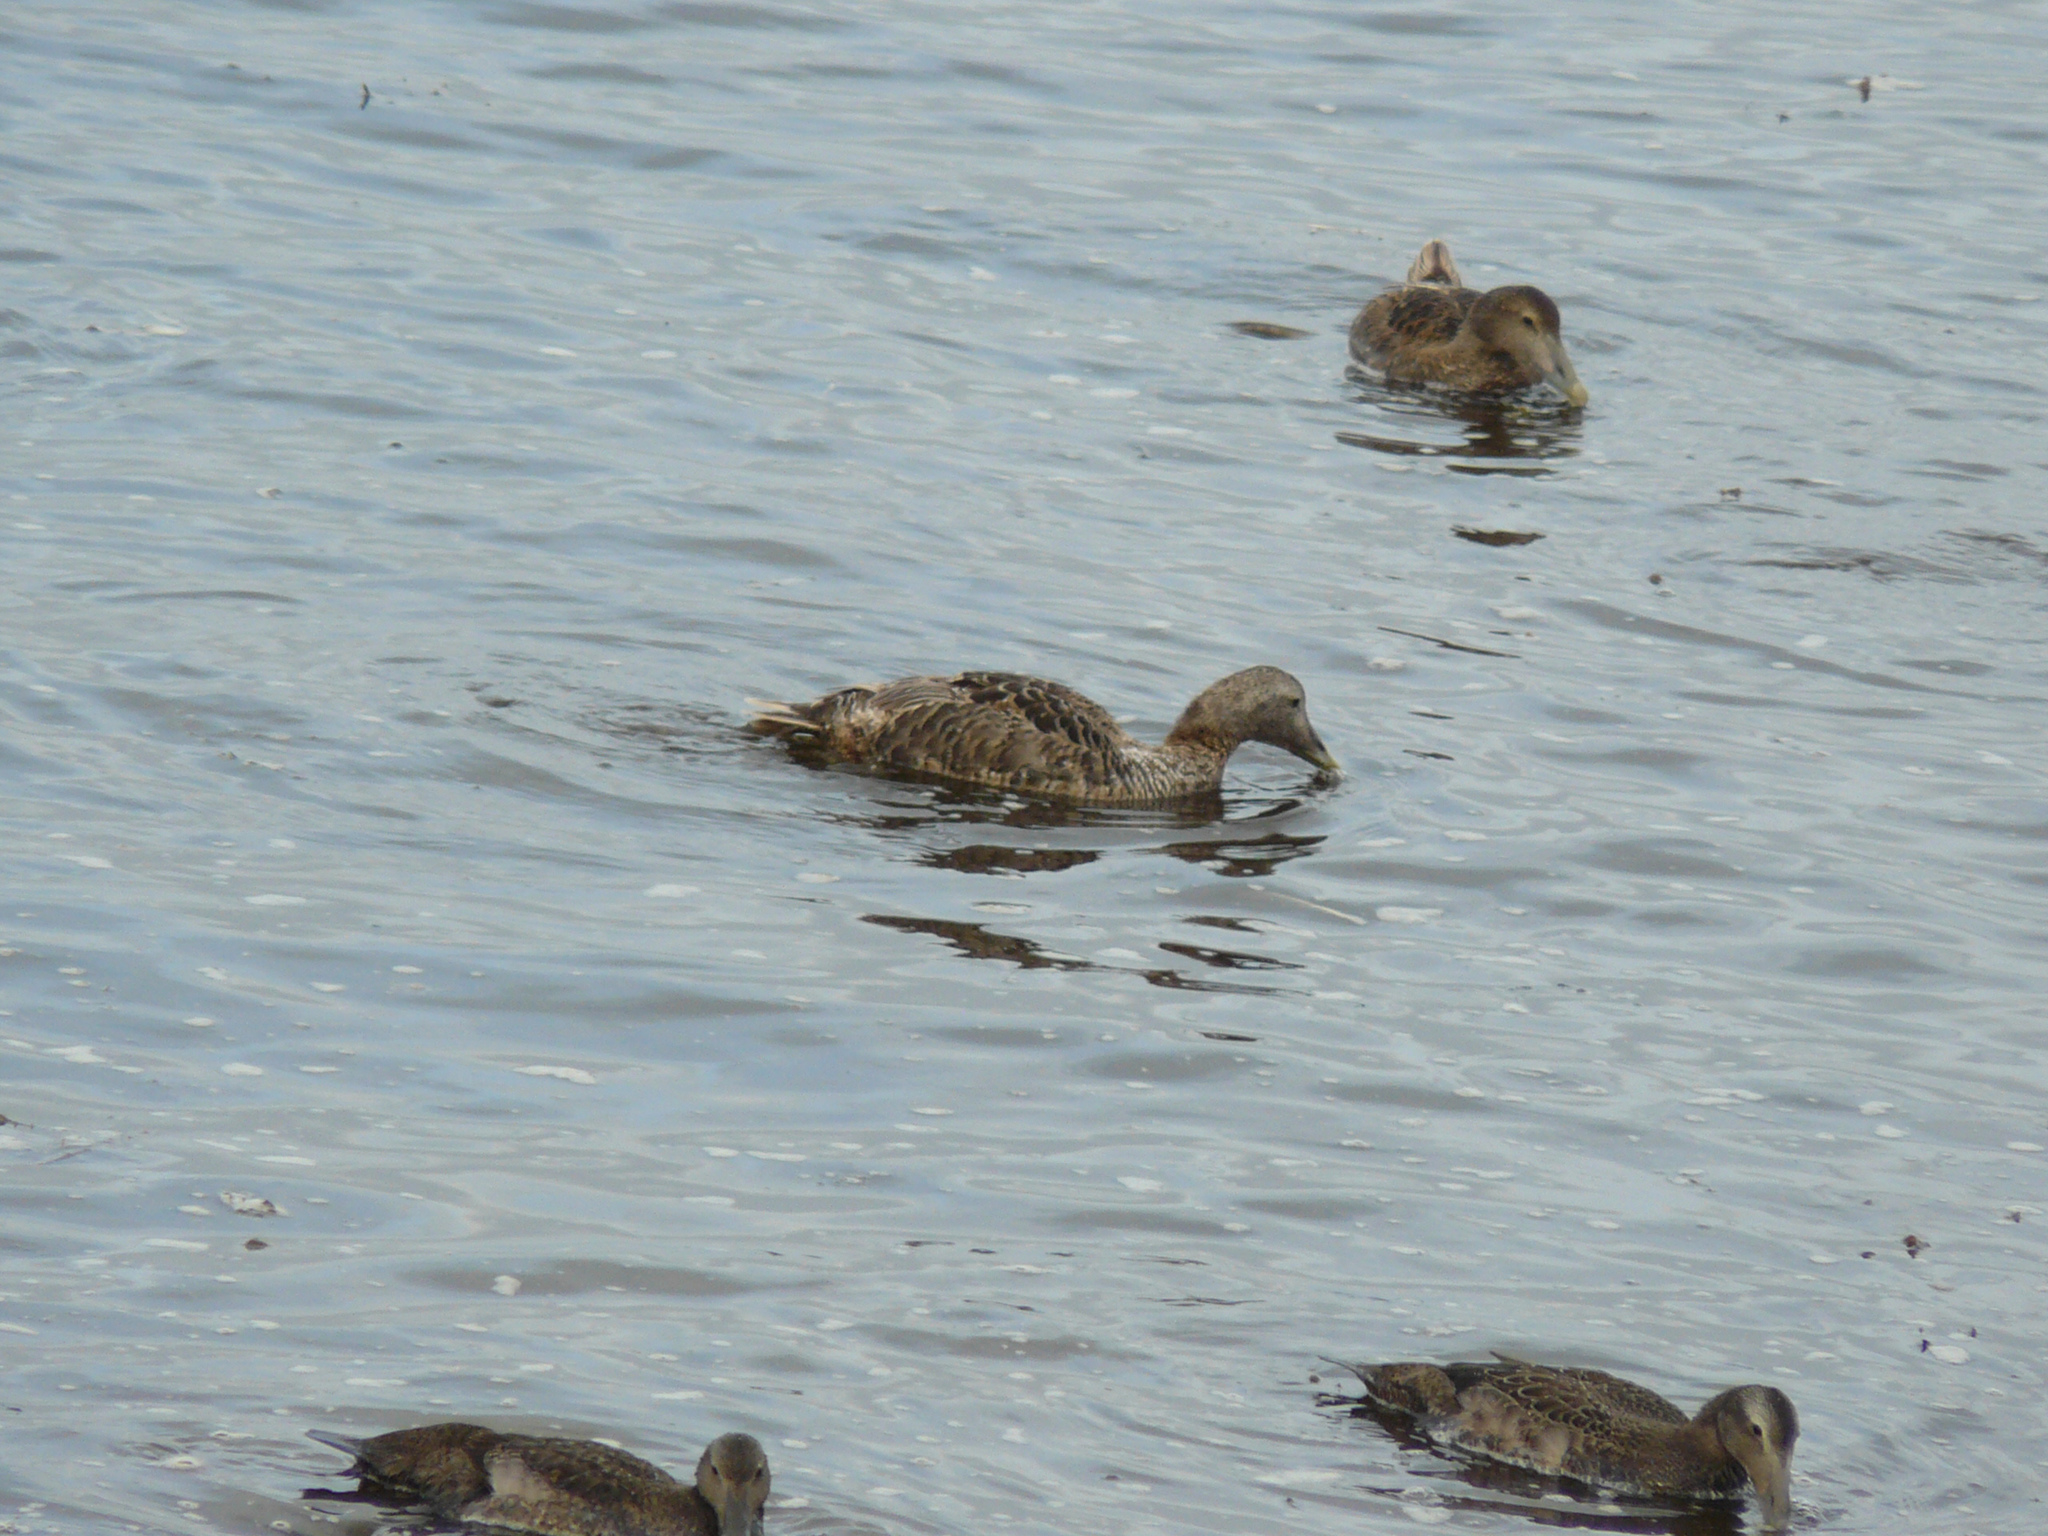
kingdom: Animalia
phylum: Chordata
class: Aves
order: Anseriformes
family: Anatidae
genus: Somateria
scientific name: Somateria mollissima
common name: Common eider
